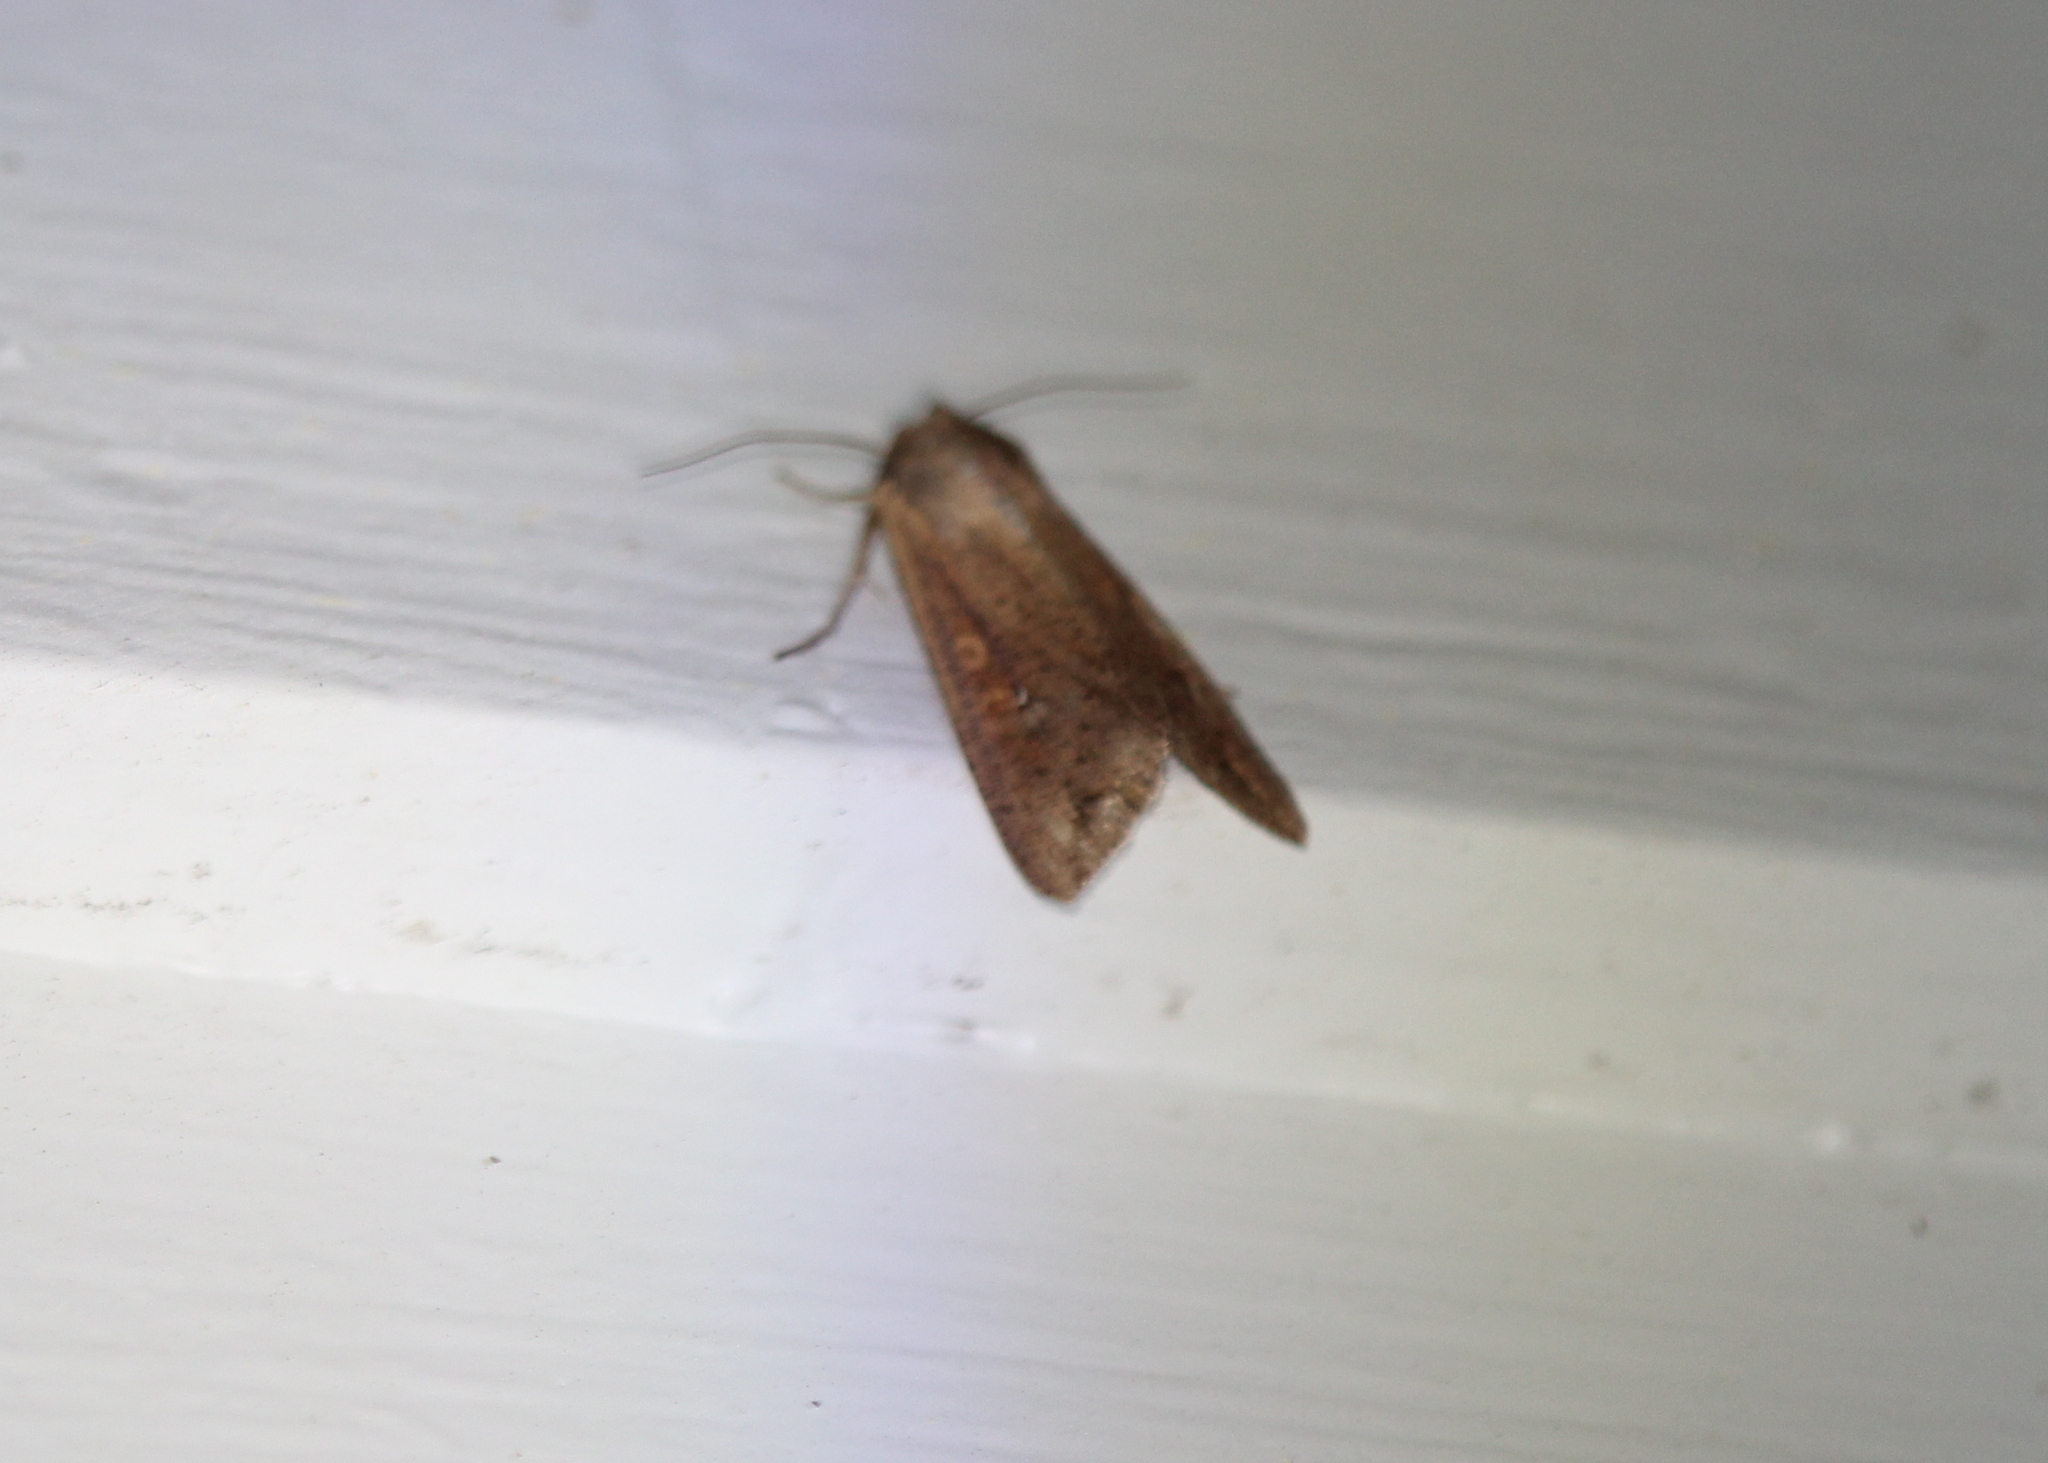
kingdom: Animalia
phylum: Arthropoda
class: Insecta
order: Lepidoptera
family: Noctuidae
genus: Mythimna
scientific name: Mythimna unipuncta
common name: White-speck
